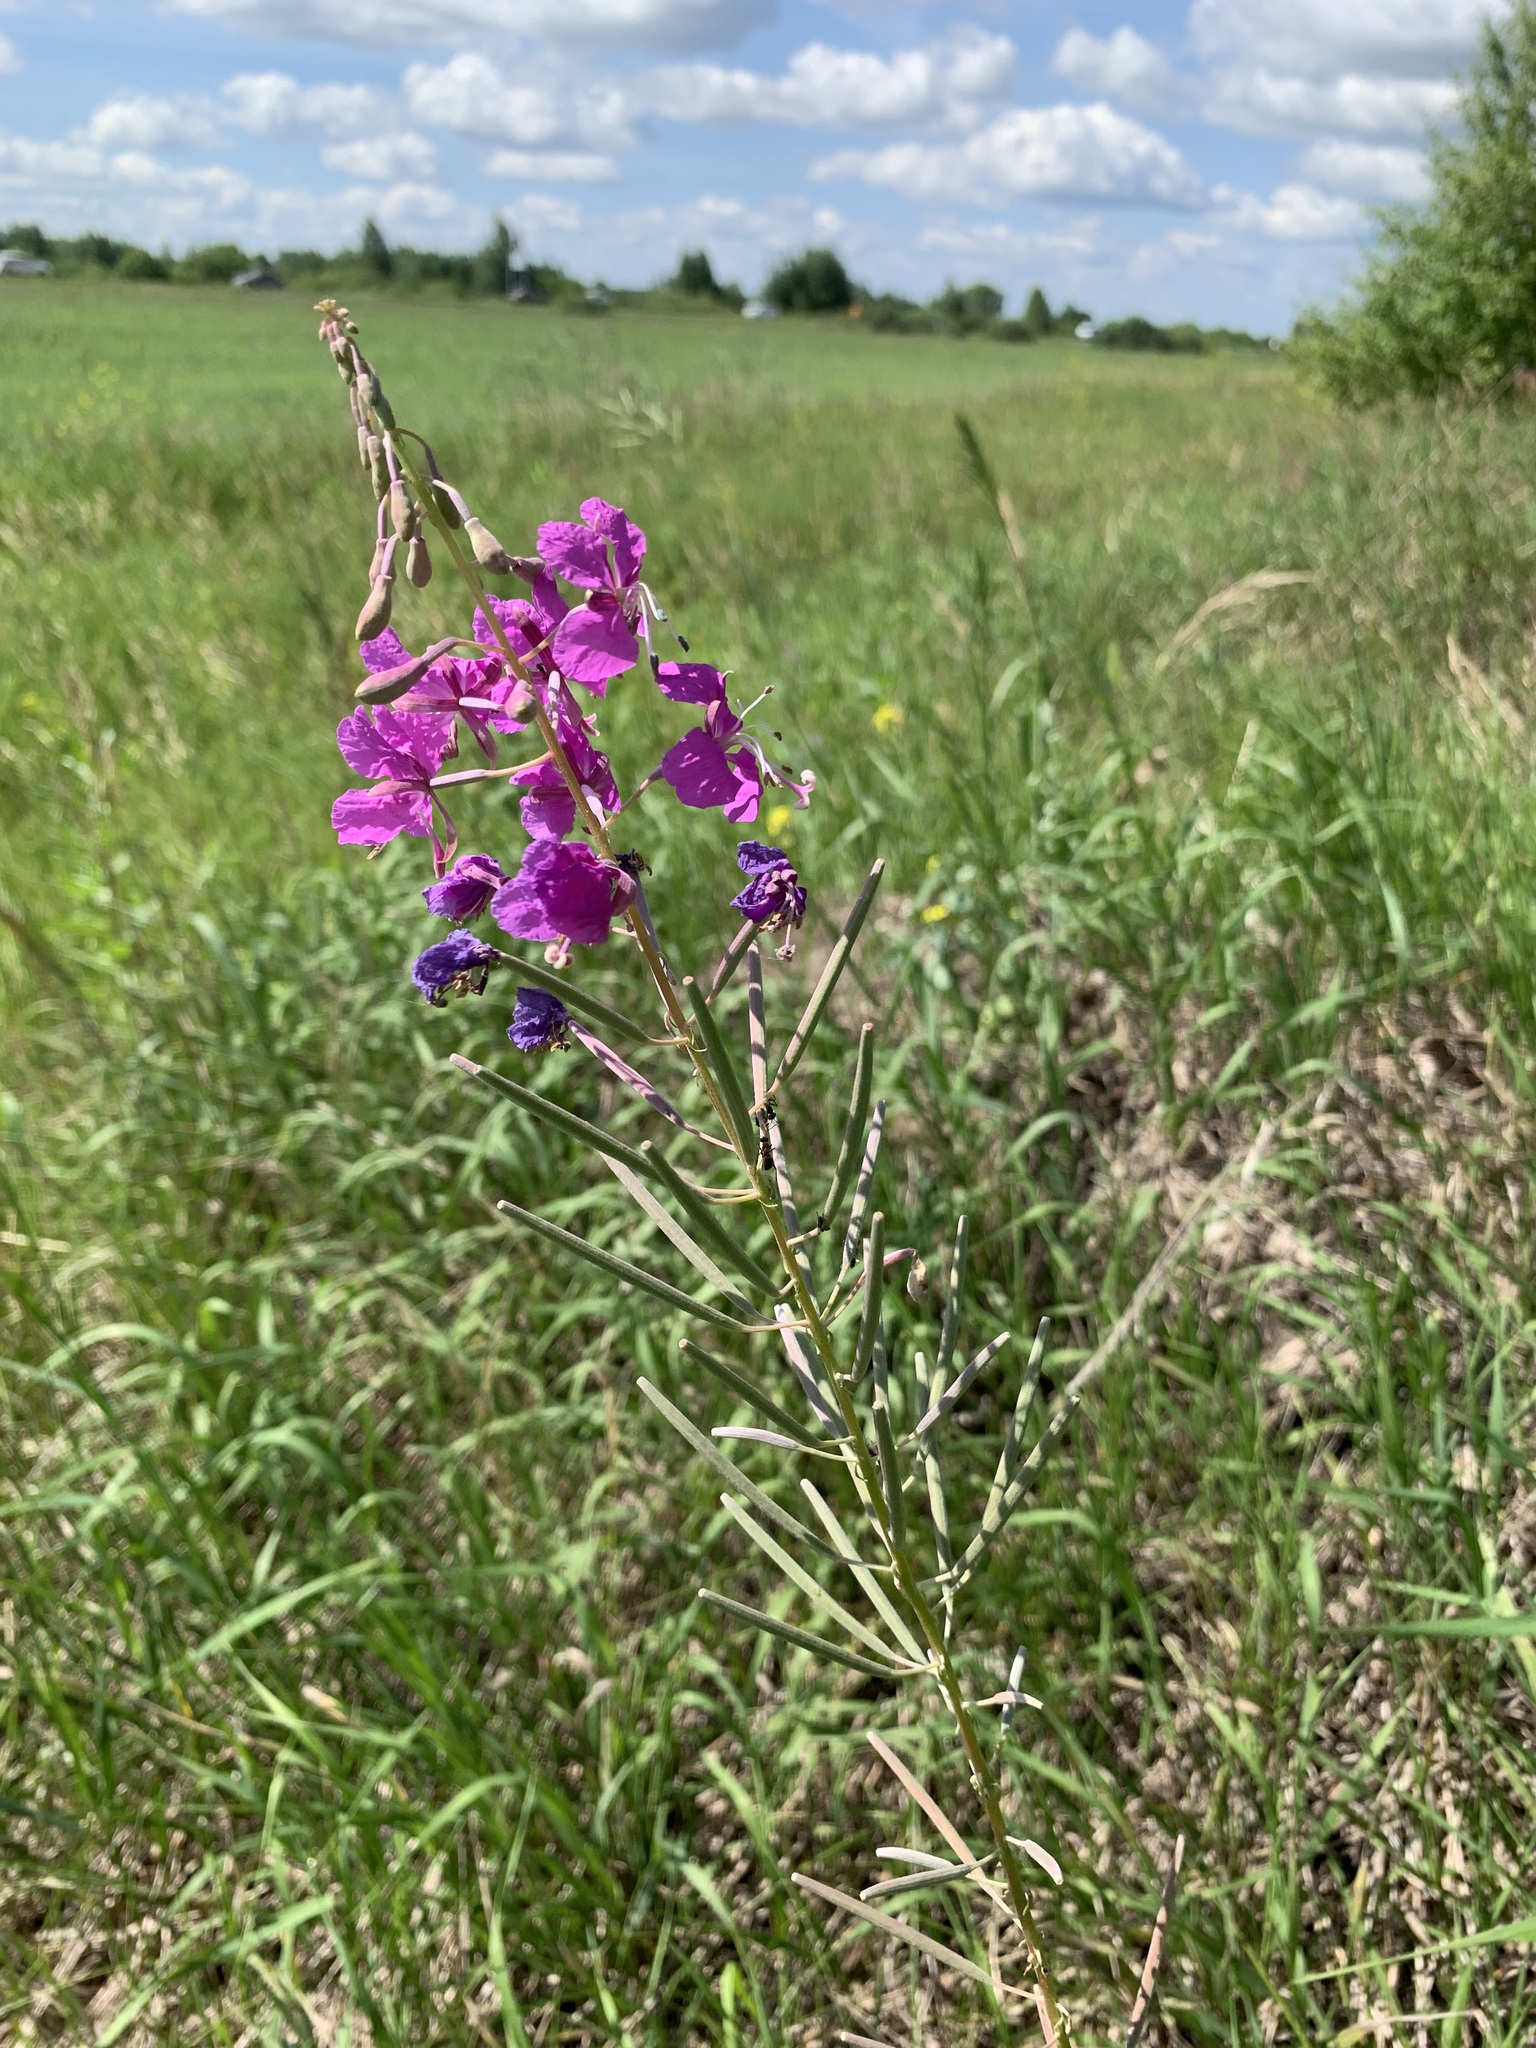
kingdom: Plantae
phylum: Tracheophyta
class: Magnoliopsida
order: Myrtales
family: Onagraceae
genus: Chamaenerion
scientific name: Chamaenerion angustifolium
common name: Fireweed
